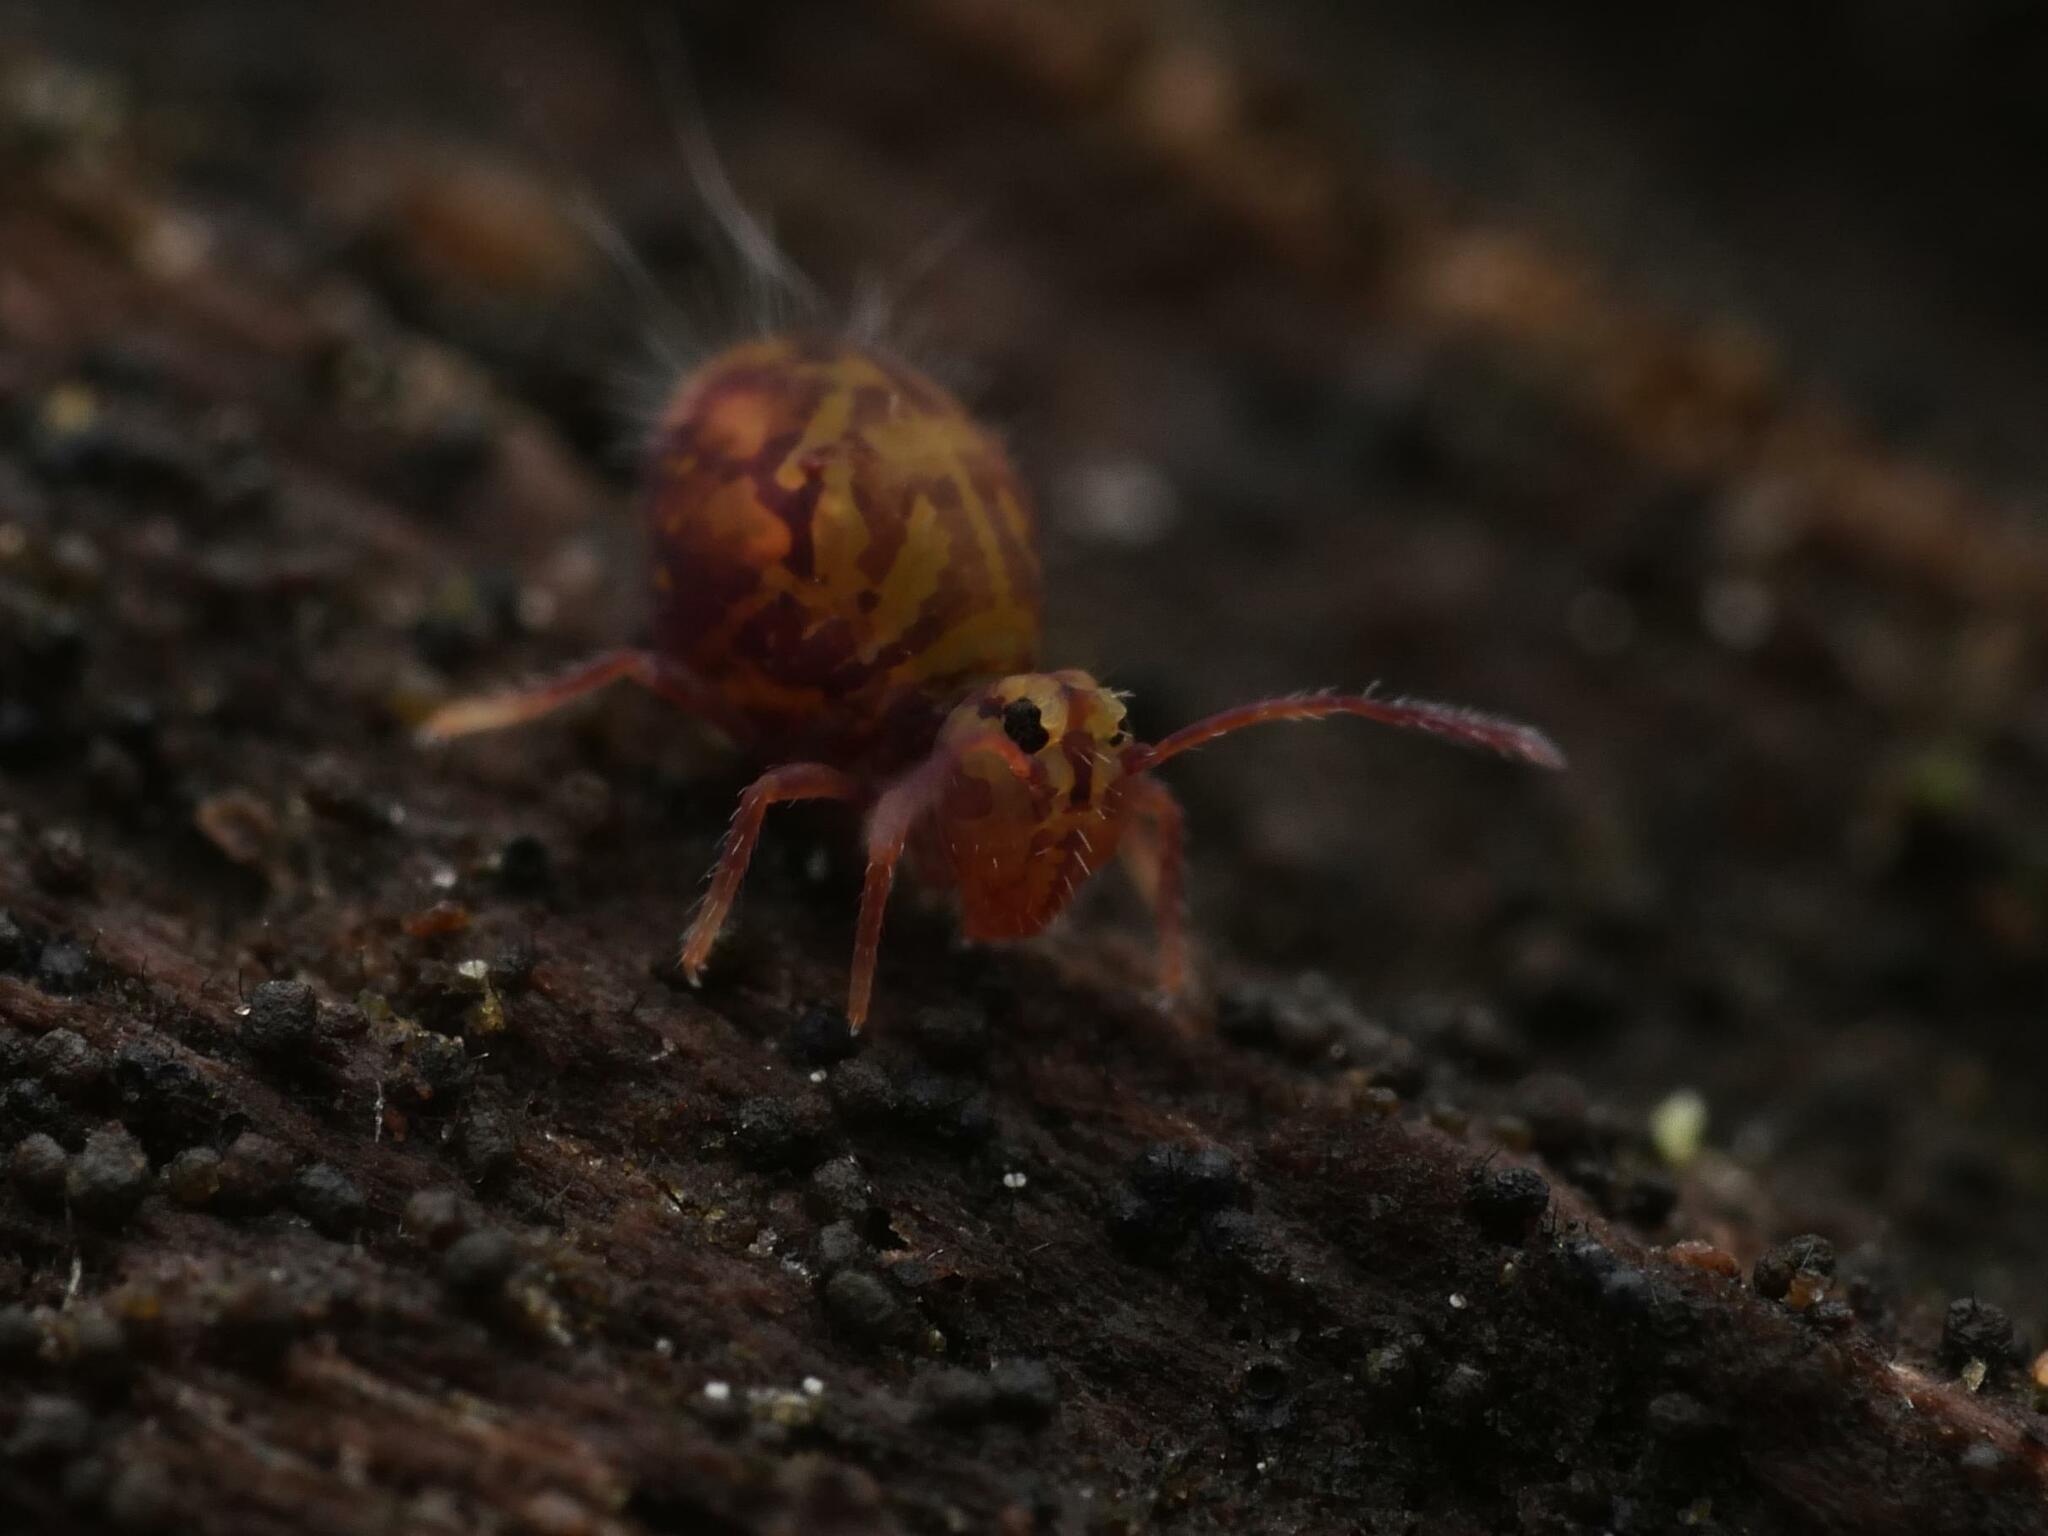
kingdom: Animalia
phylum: Arthropoda
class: Collembola
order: Symphypleona
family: Dicyrtomidae
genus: Dicyrtomina
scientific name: Dicyrtomina ornata
